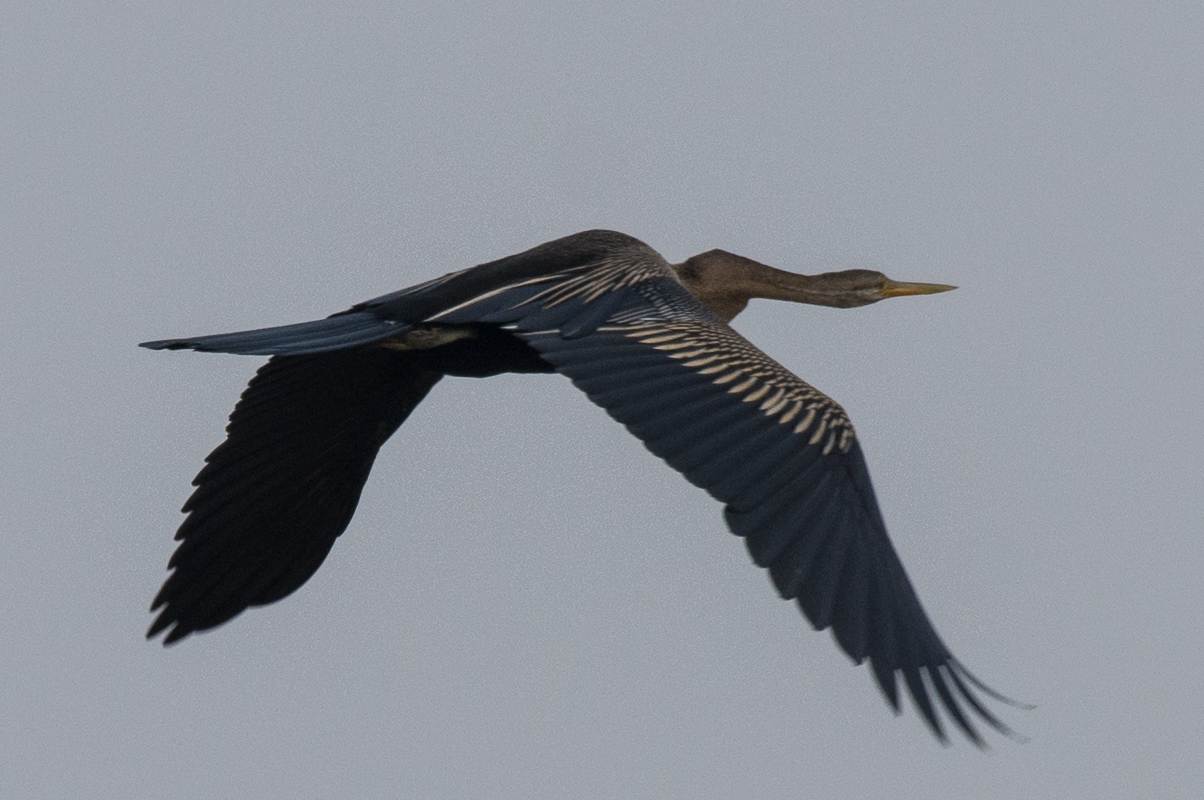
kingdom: Animalia
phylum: Chordata
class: Aves
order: Suliformes
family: Anhingidae
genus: Anhinga
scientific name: Anhinga melanogaster
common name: Oriental darter
